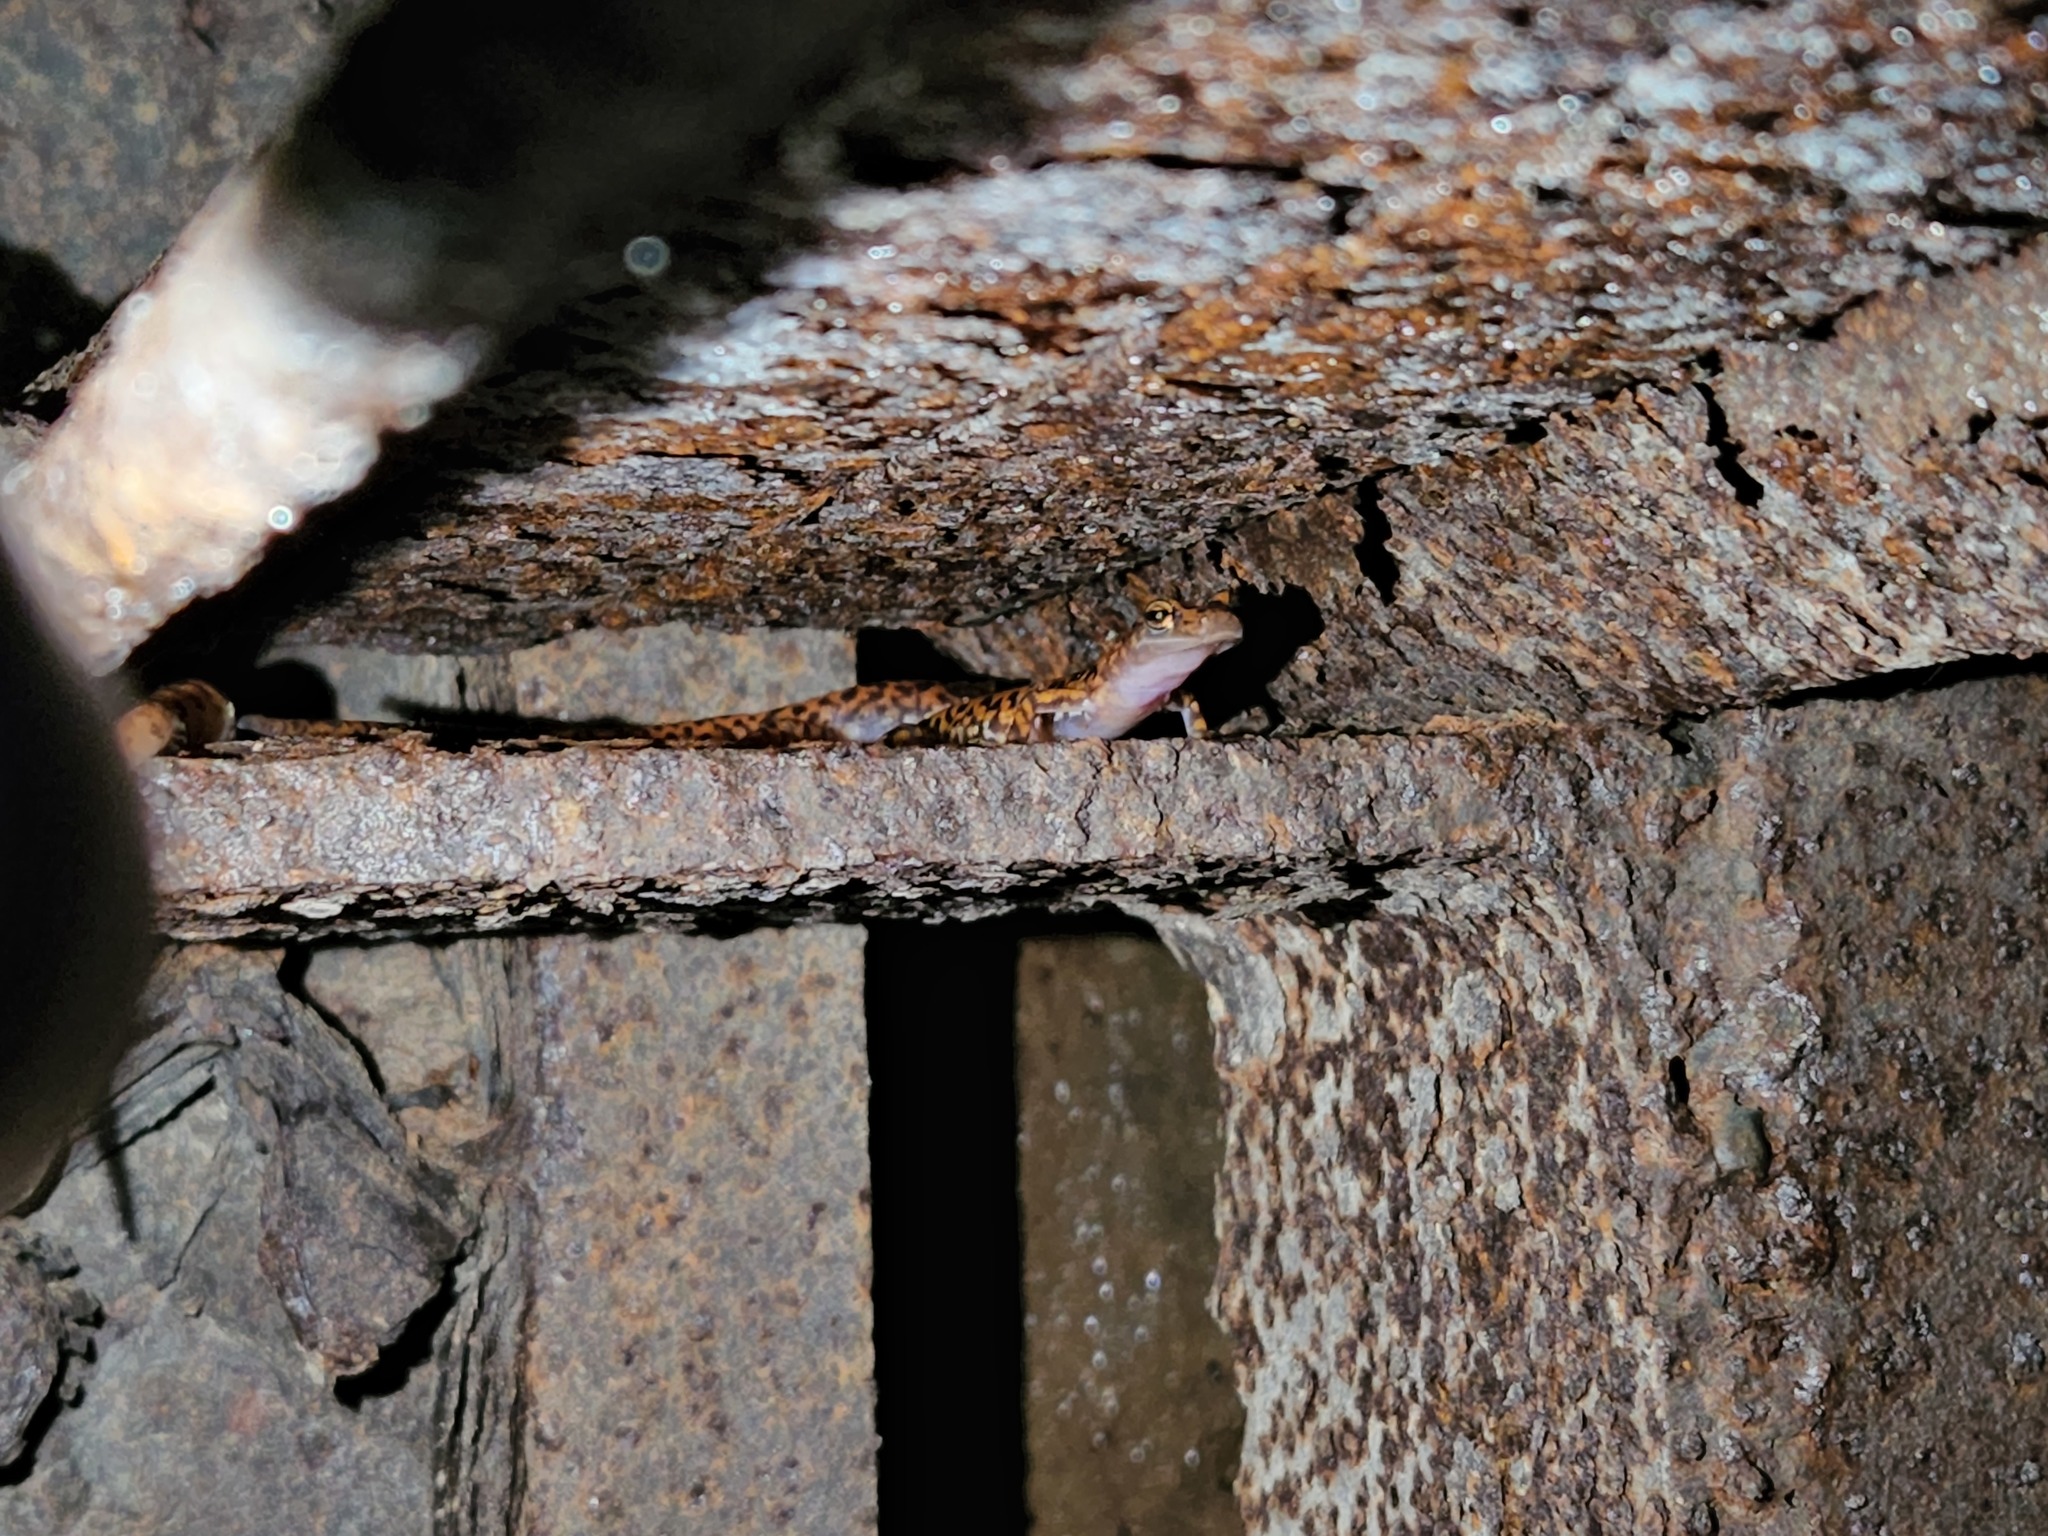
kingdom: Animalia
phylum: Chordata
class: Amphibia
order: Caudata
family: Plethodontidae
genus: Eurycea
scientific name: Eurycea lucifuga
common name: Cave salamander
